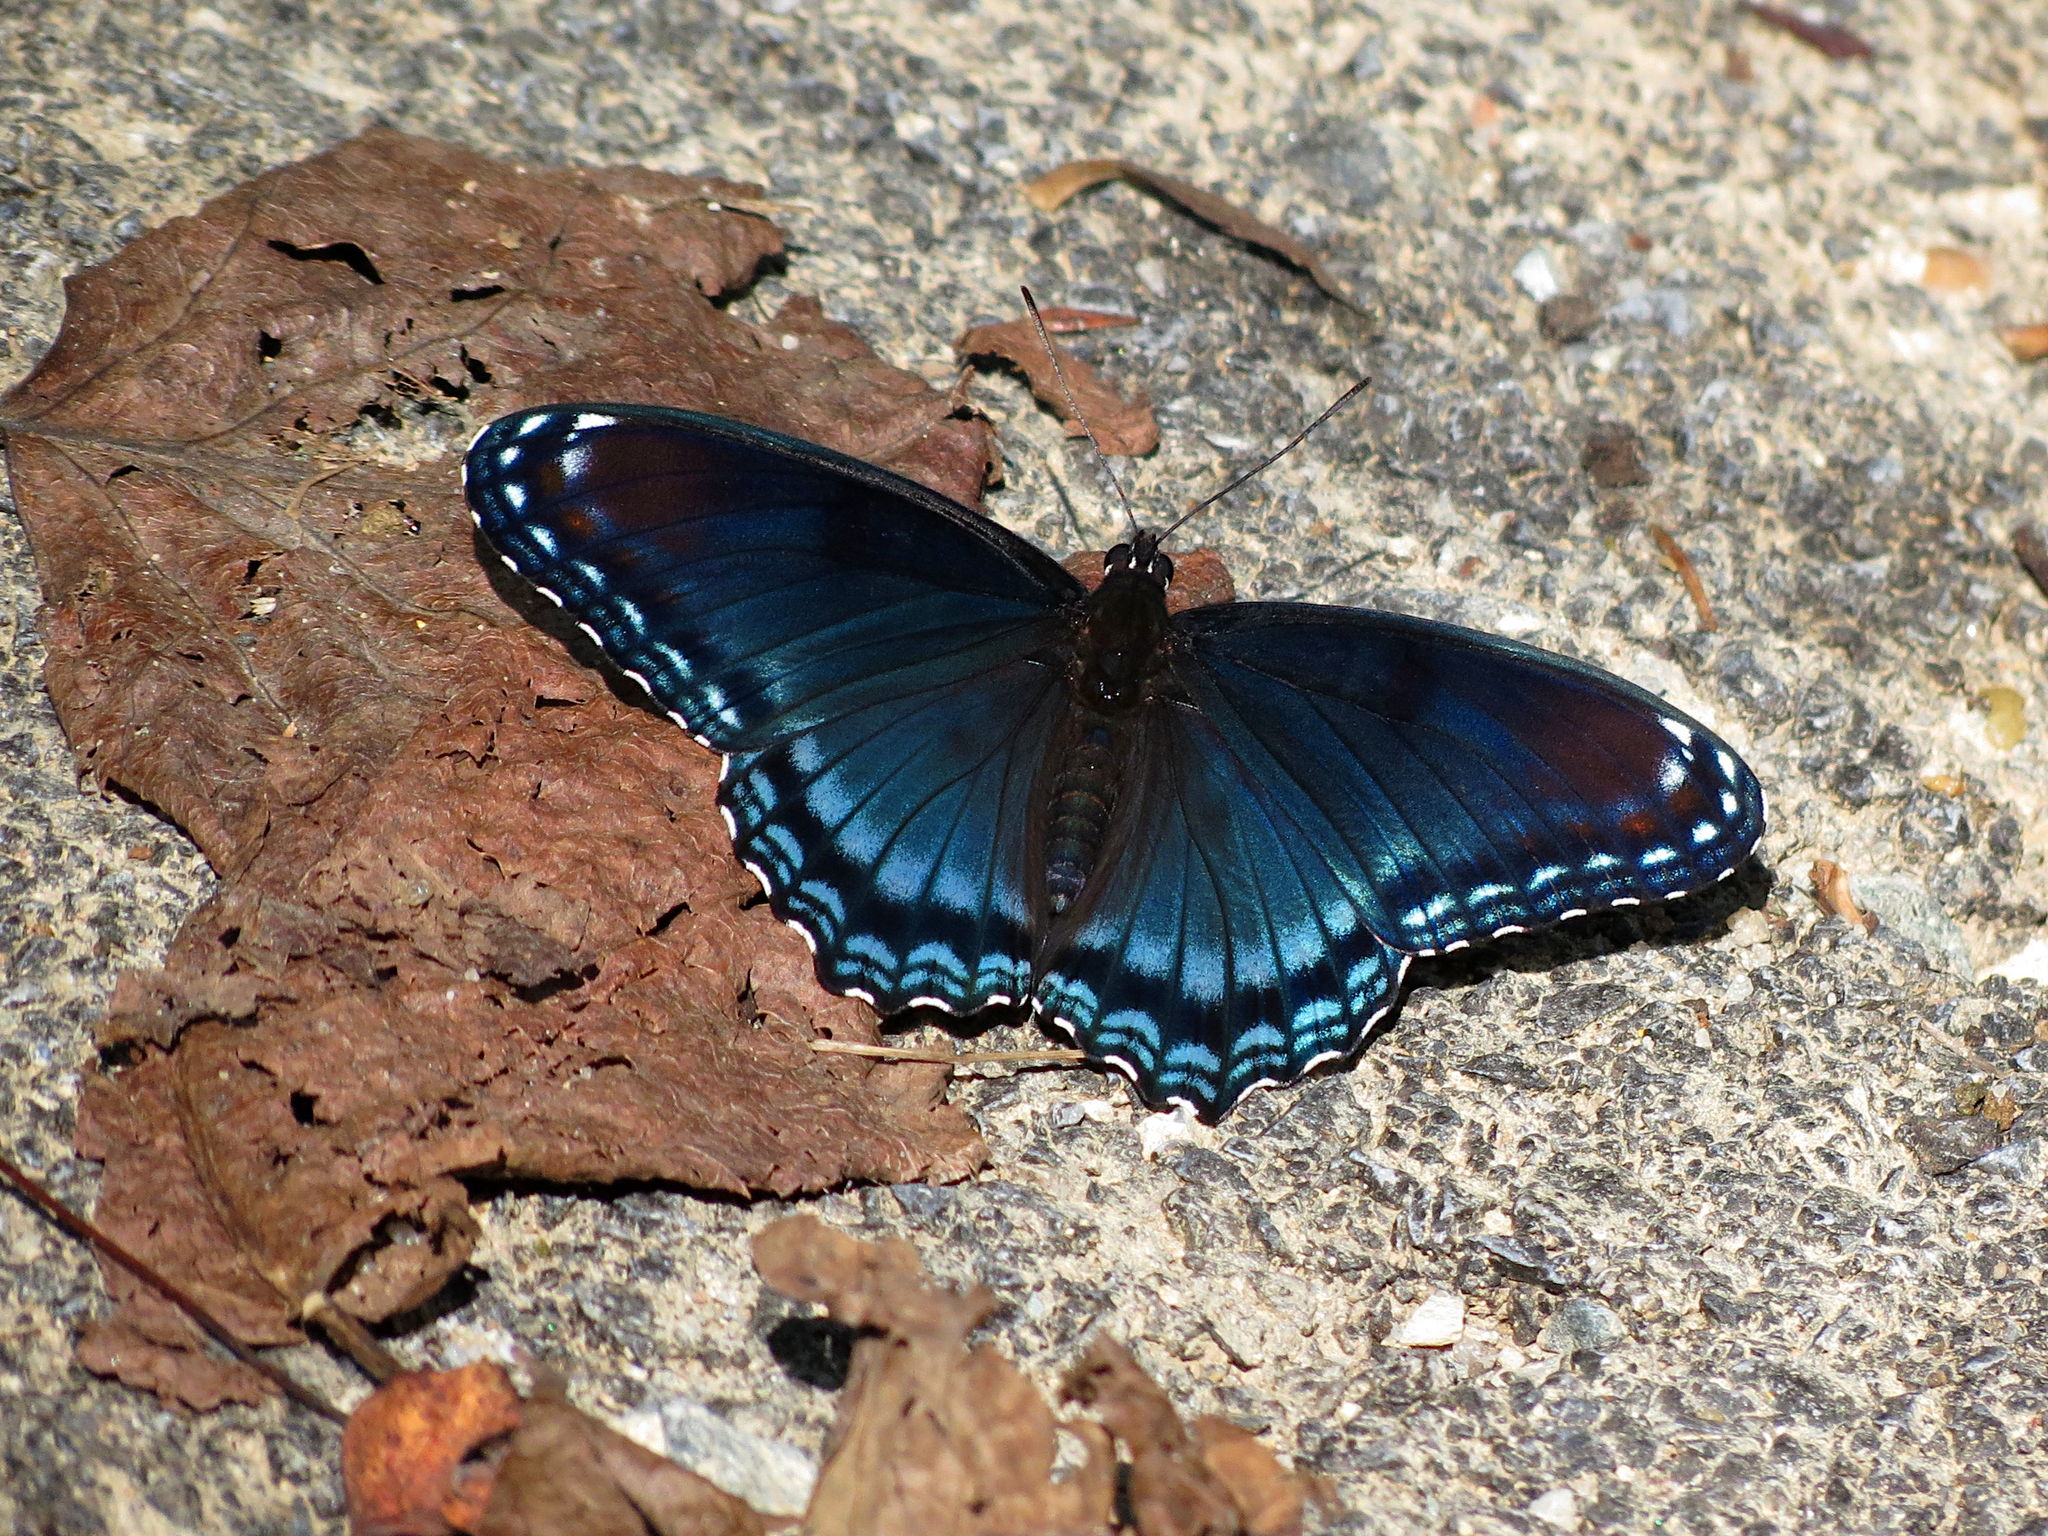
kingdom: Animalia
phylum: Arthropoda
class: Insecta
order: Lepidoptera
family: Nymphalidae
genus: Limenitis
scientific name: Limenitis astyanax
